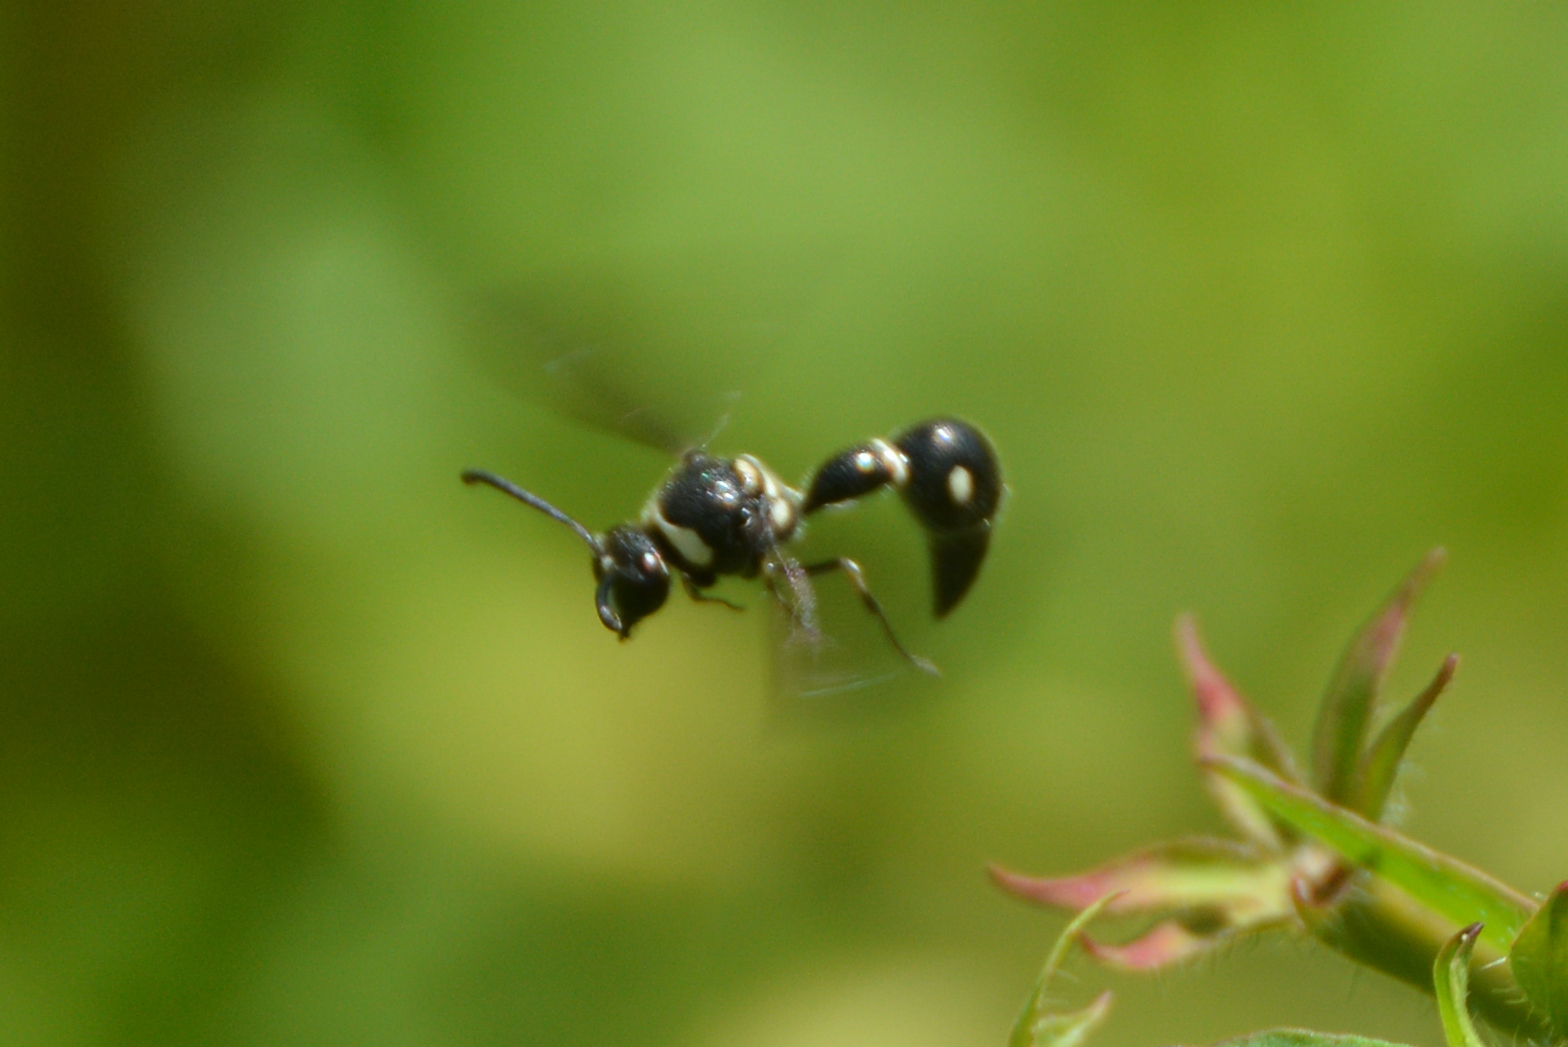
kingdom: Animalia
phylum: Arthropoda
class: Insecta
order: Hymenoptera
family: Vespidae
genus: Eumenes
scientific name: Eumenes fraternus
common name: Fraternal potter wasp
